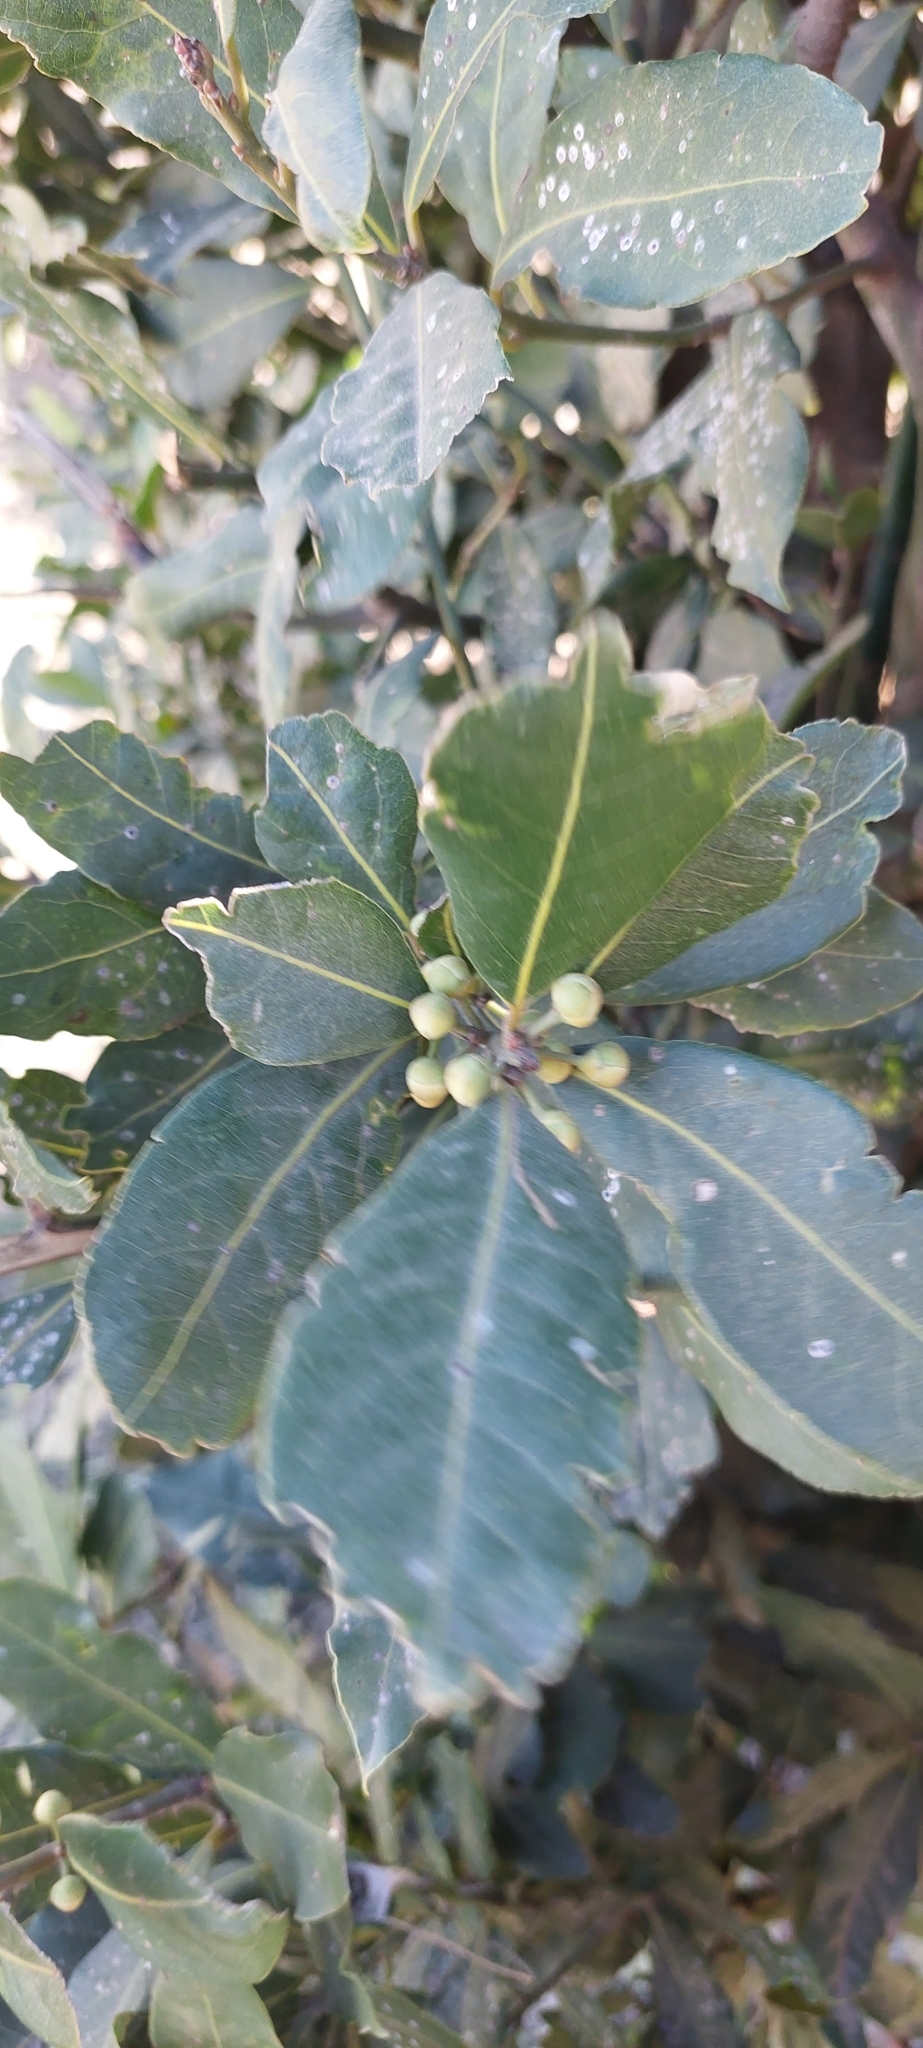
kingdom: Plantae
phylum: Tracheophyta
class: Magnoliopsida
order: Laurales
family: Lauraceae
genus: Laurus
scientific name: Laurus nobilis
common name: Bay
